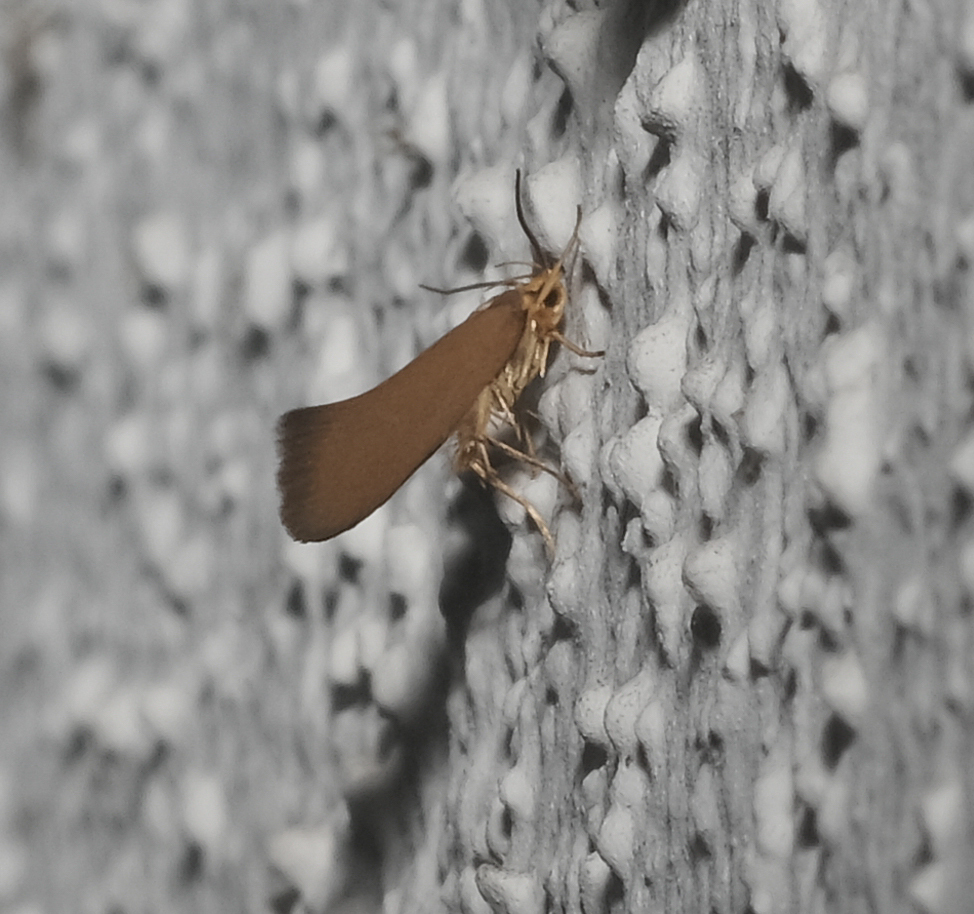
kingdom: Animalia
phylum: Arthropoda
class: Insecta
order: Lepidoptera
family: Oecophoridae
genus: Borkhausenia
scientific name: Borkhausenia Crassa unitella
